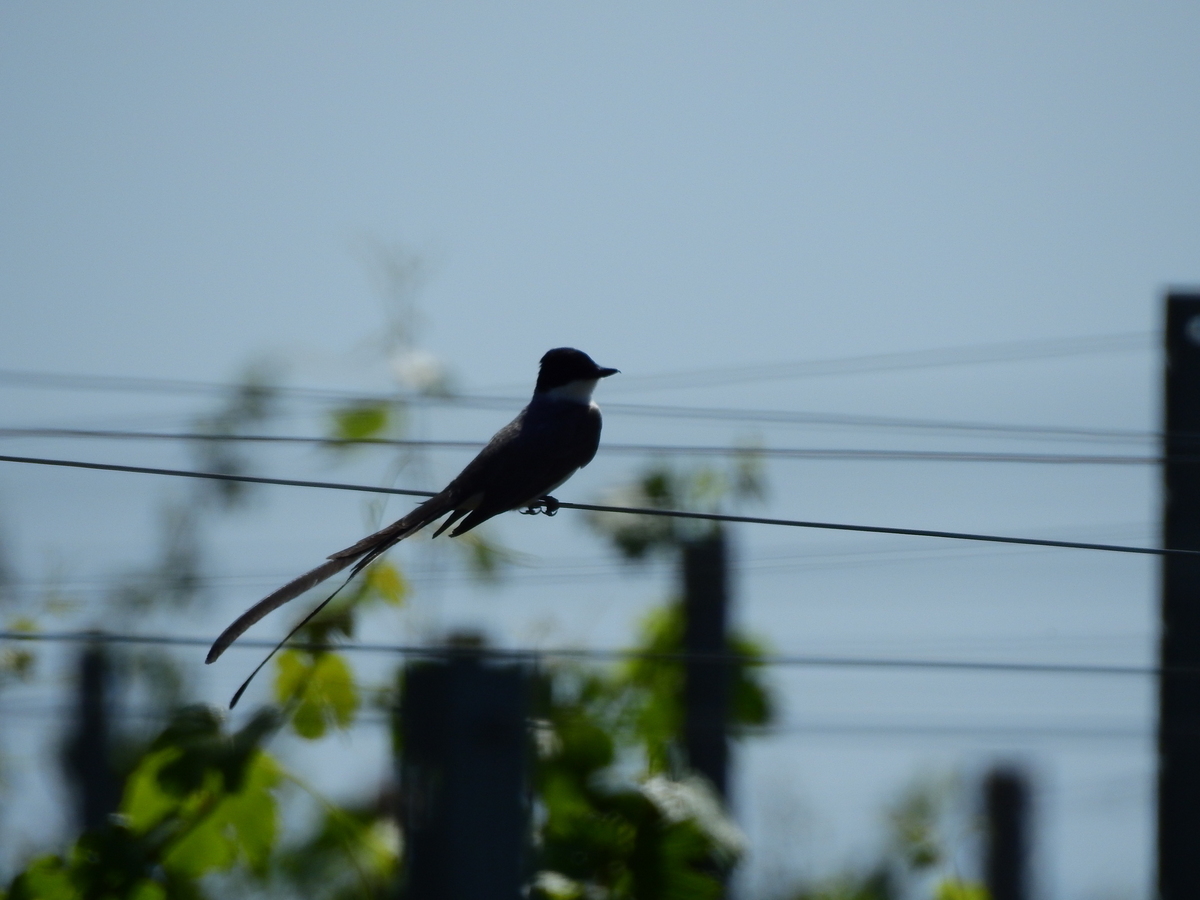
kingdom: Animalia
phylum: Chordata
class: Aves
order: Passeriformes
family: Tyrannidae
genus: Tyrannus
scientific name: Tyrannus savana
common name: Fork-tailed flycatcher
